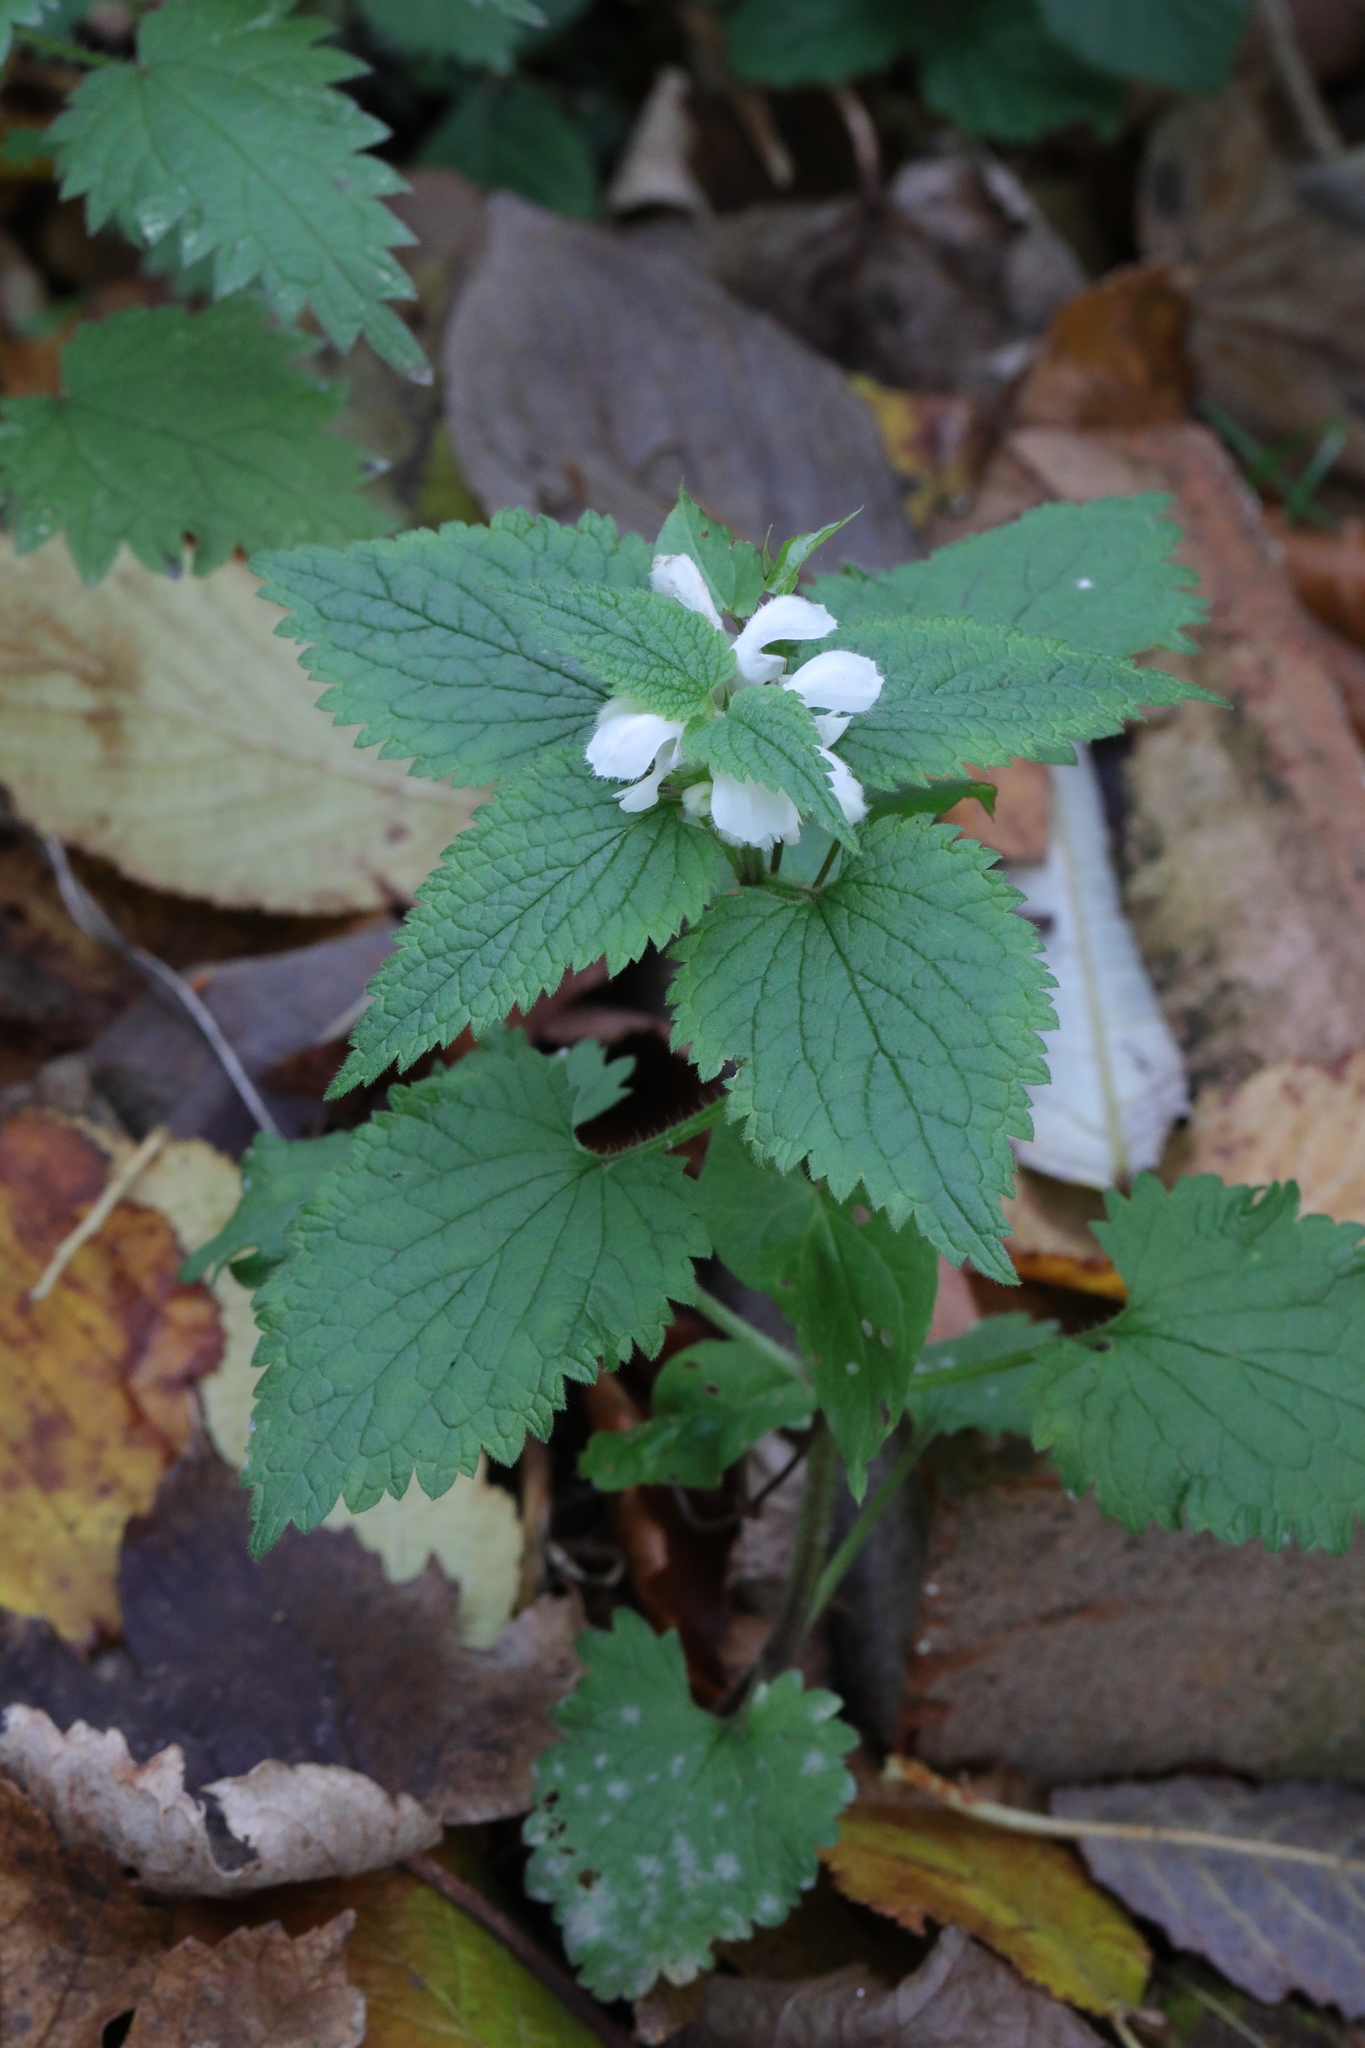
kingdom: Plantae
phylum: Tracheophyta
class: Magnoliopsida
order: Lamiales
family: Lamiaceae
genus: Lamium
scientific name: Lamium album
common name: White dead-nettle
